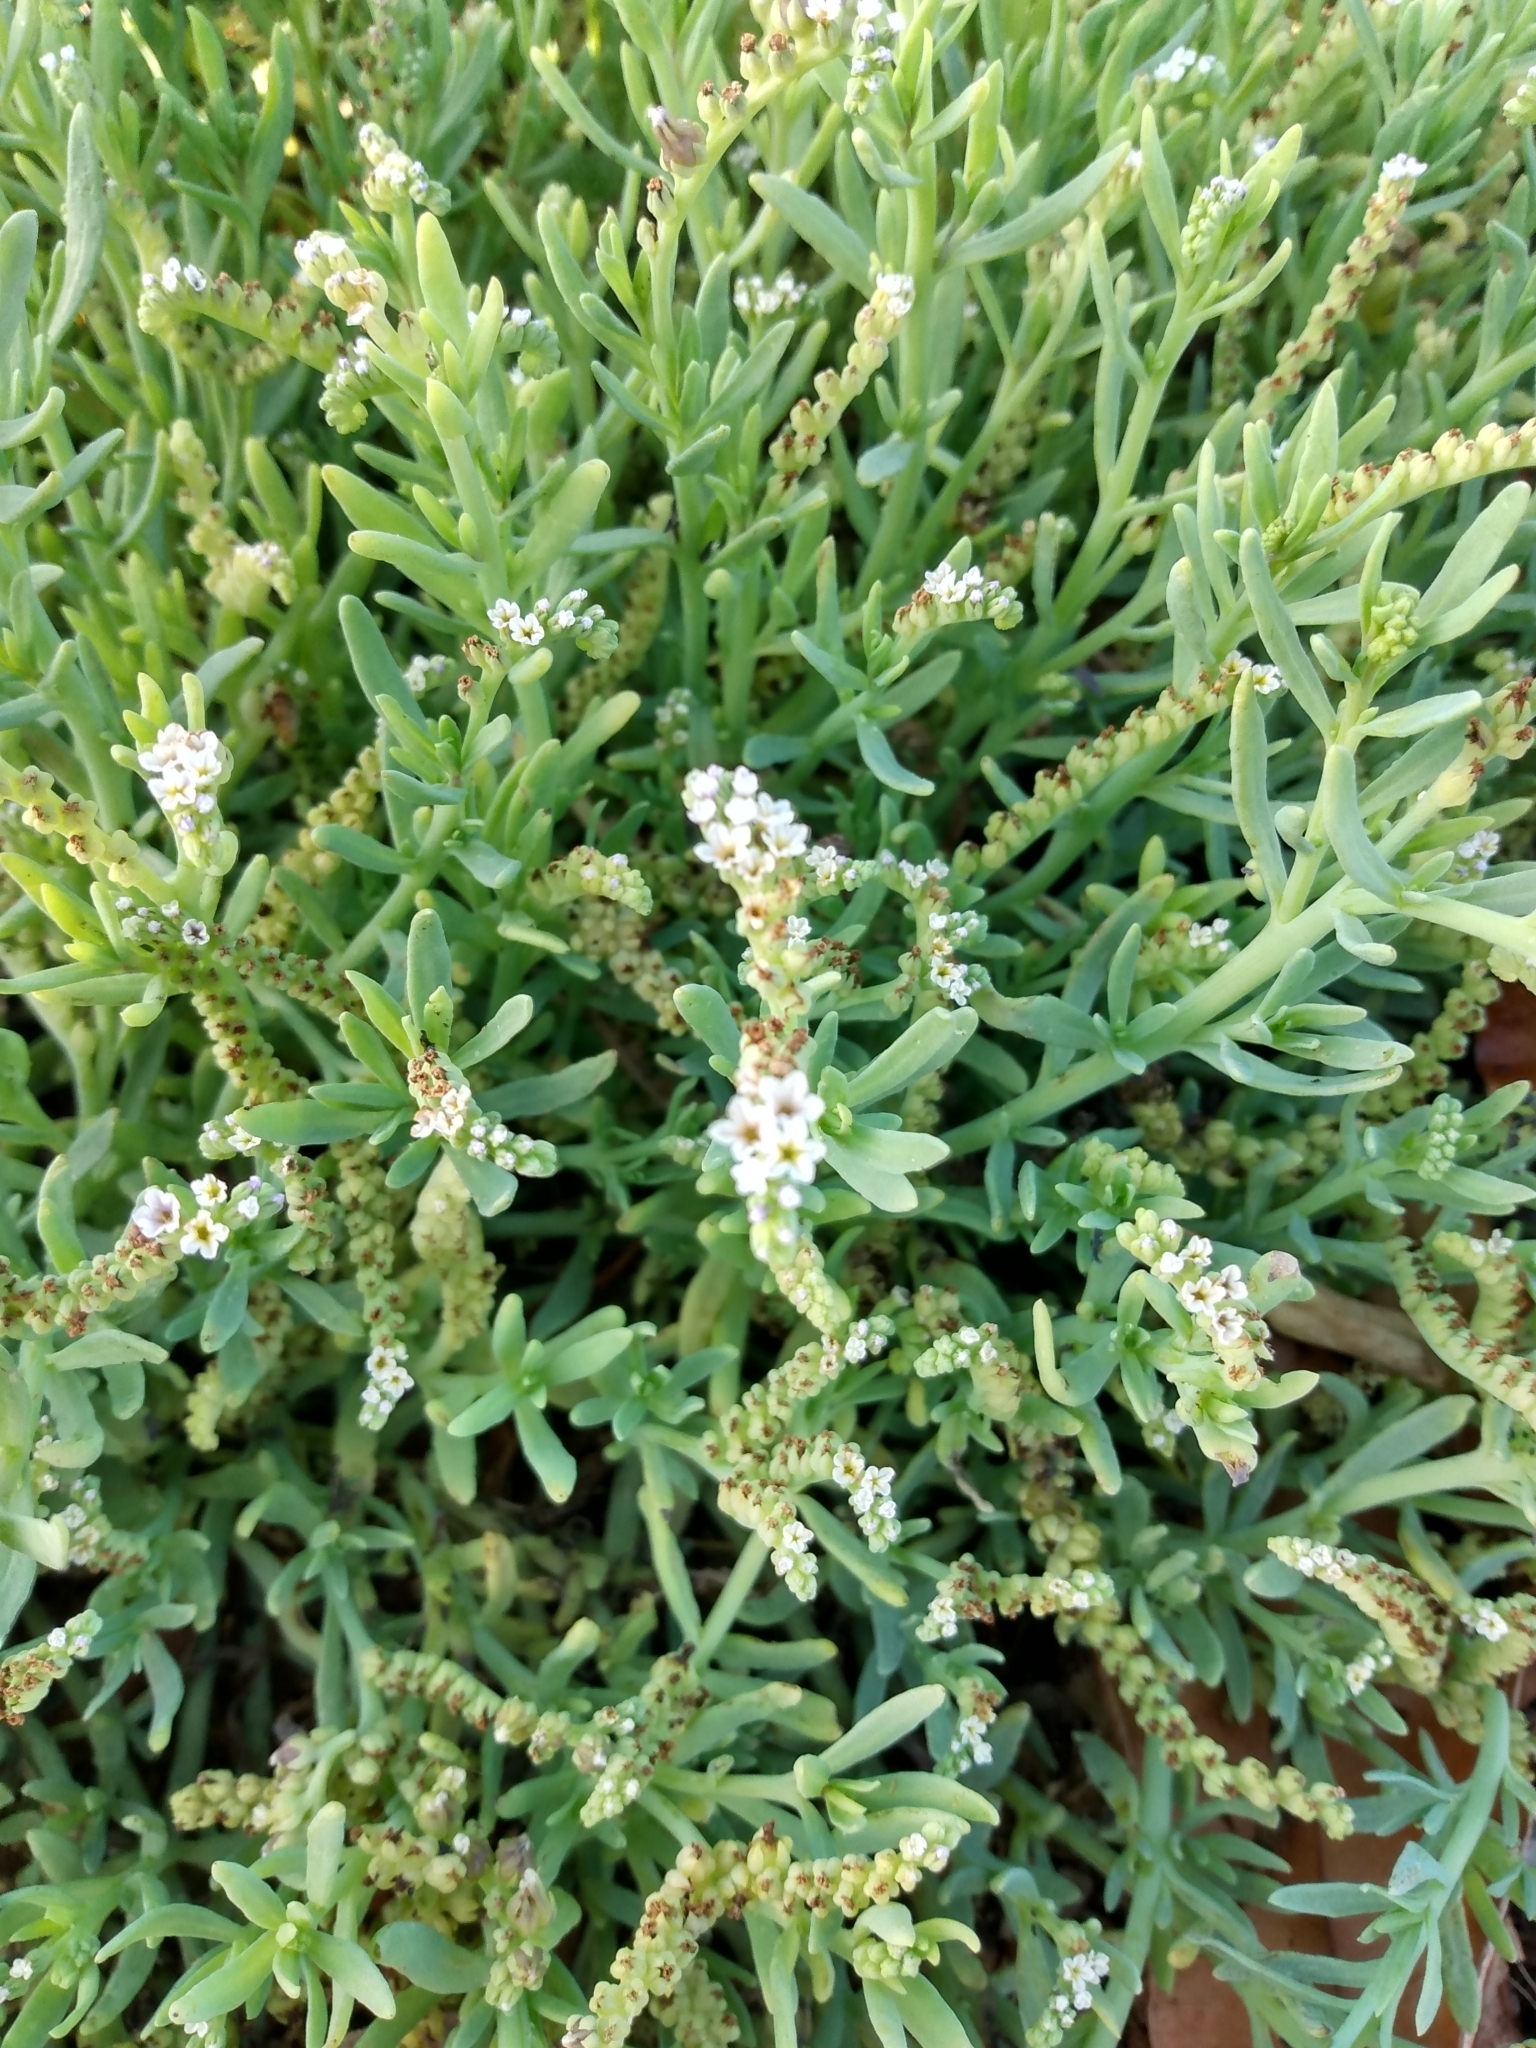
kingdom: Plantae
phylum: Tracheophyta
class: Magnoliopsida
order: Boraginales
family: Heliotropiaceae
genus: Heliotropium
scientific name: Heliotropium curassavicum
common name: Seaside heliotrope
